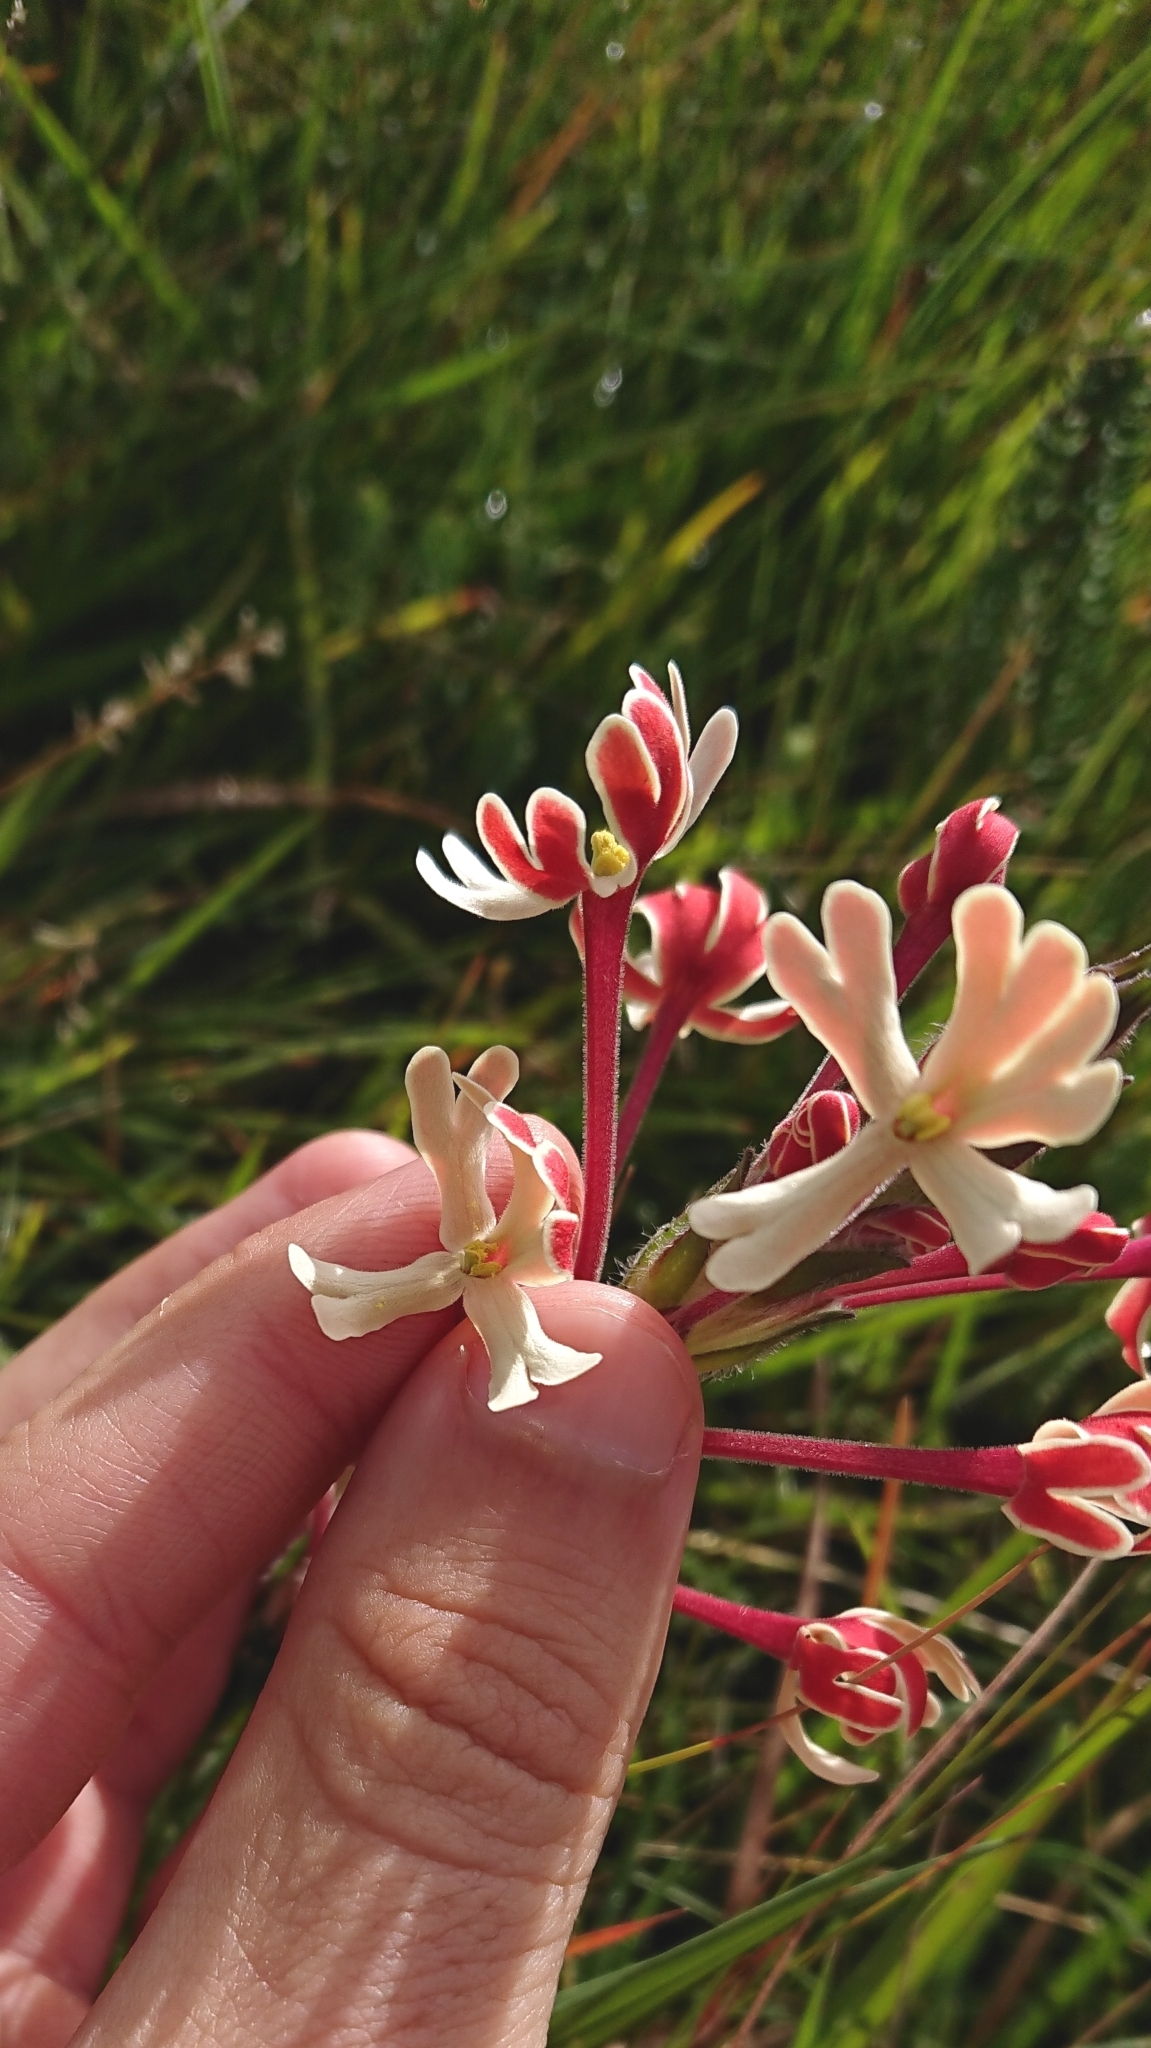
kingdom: Plantae
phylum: Tracheophyta
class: Magnoliopsida
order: Lamiales
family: Scrophulariaceae
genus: Zaluzianskya
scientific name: Zaluzianskya microsiphon
